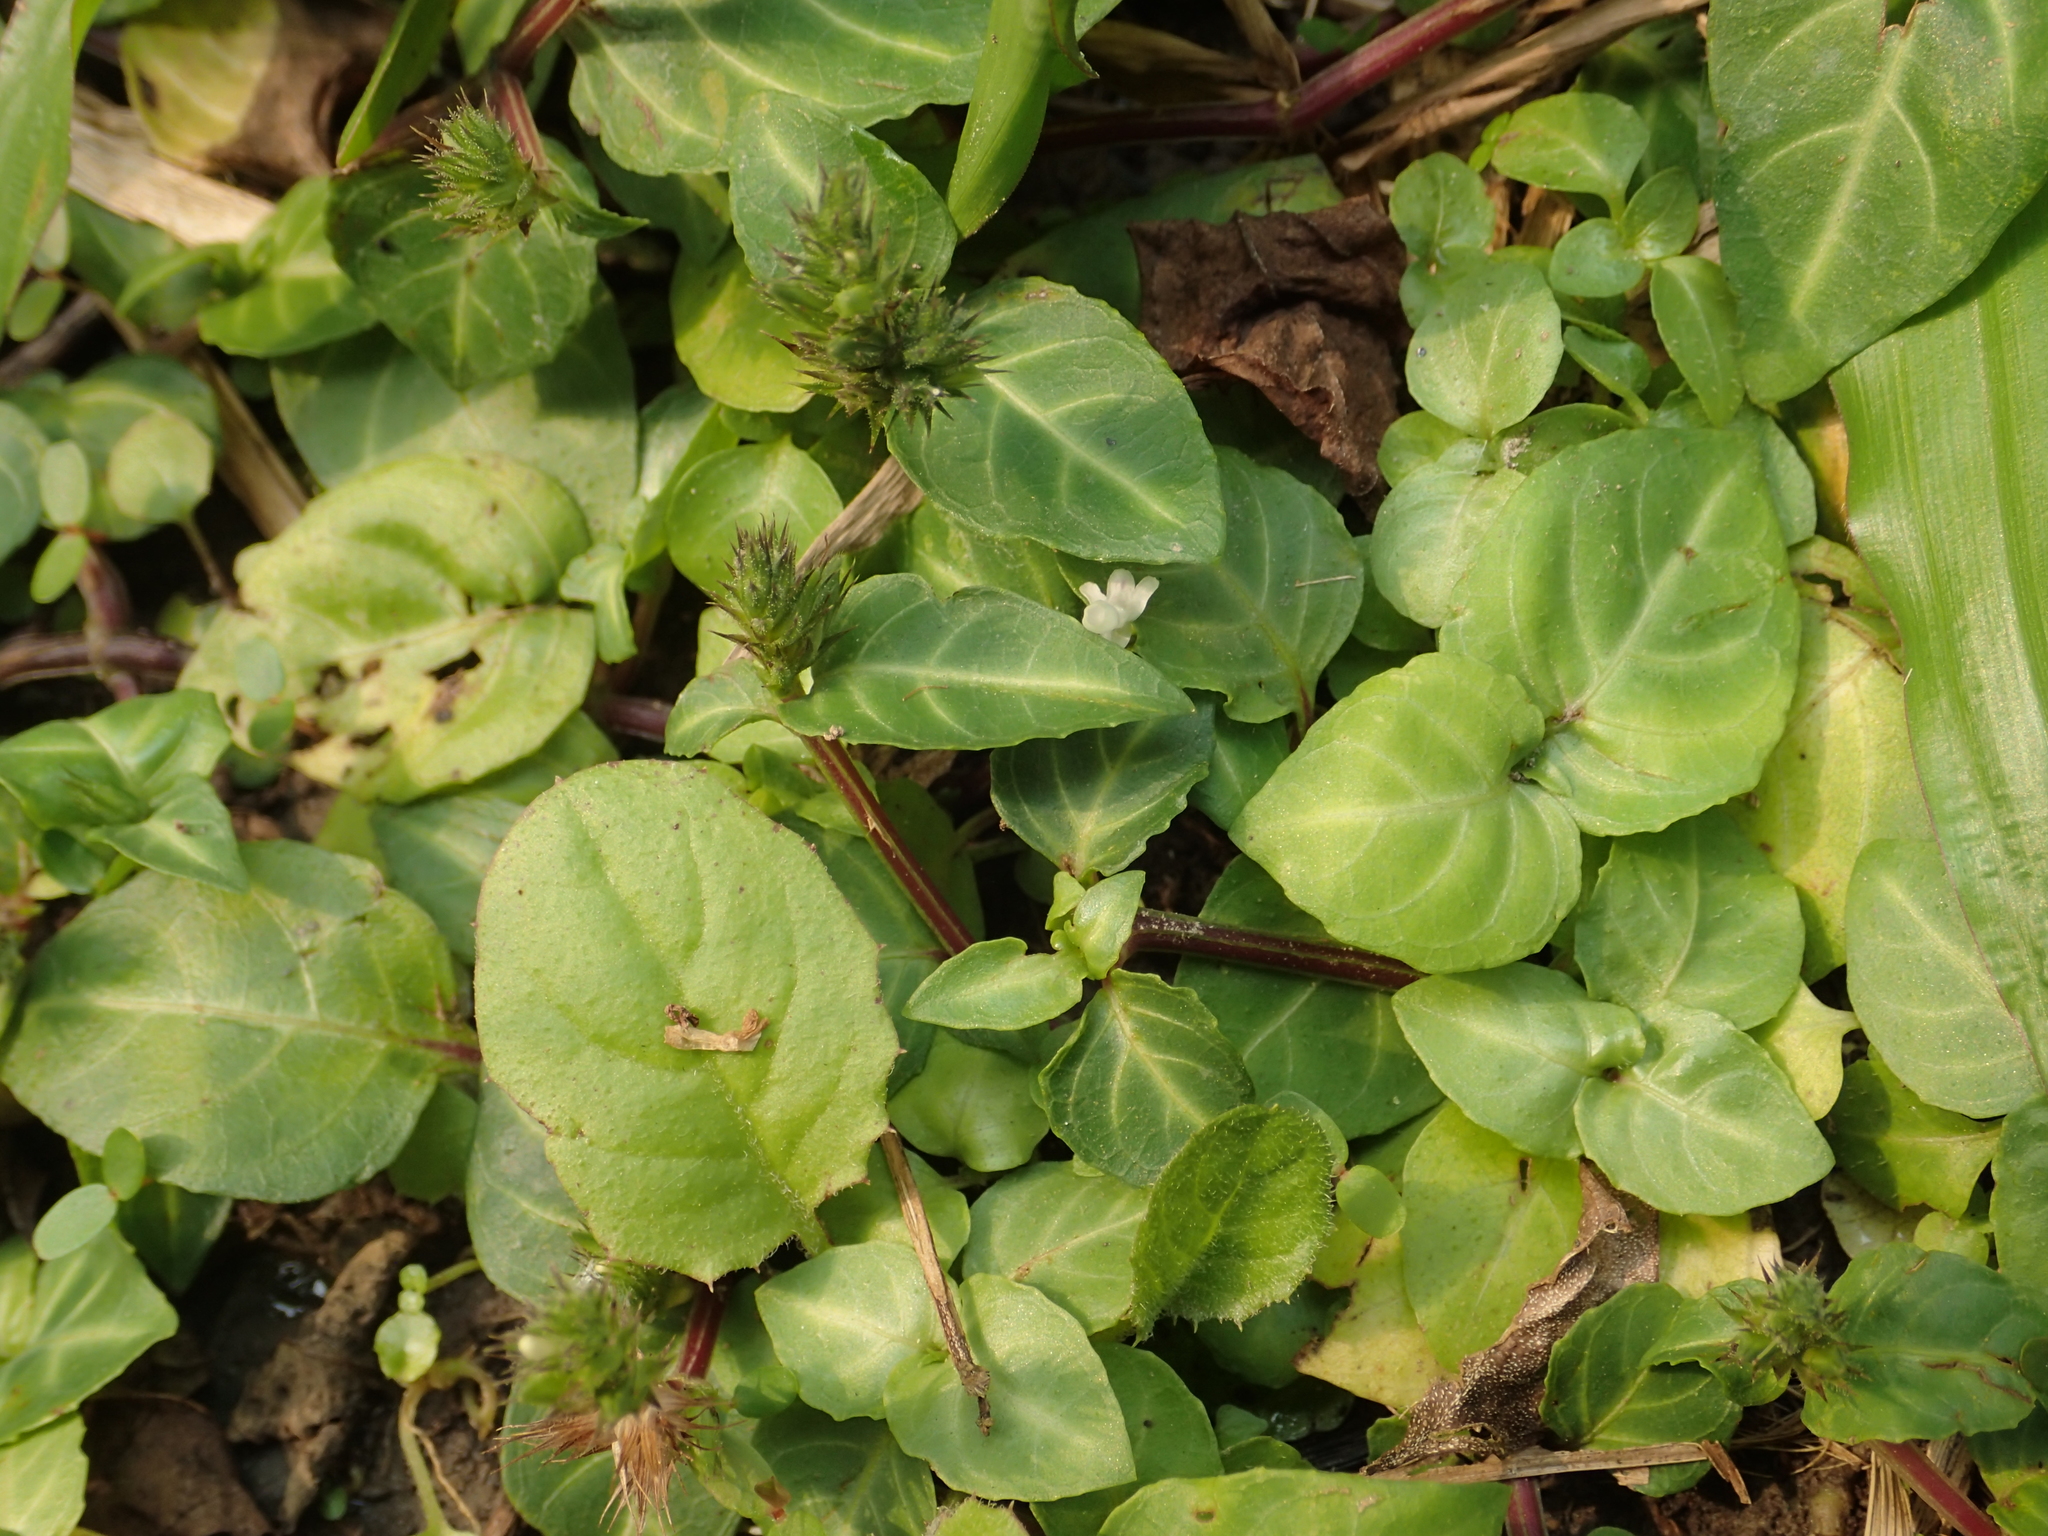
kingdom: Plantae
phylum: Tracheophyta
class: Magnoliopsida
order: Lamiales
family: Acanthaceae
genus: Lepidagathis
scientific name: Lepidagathis inaequalis
